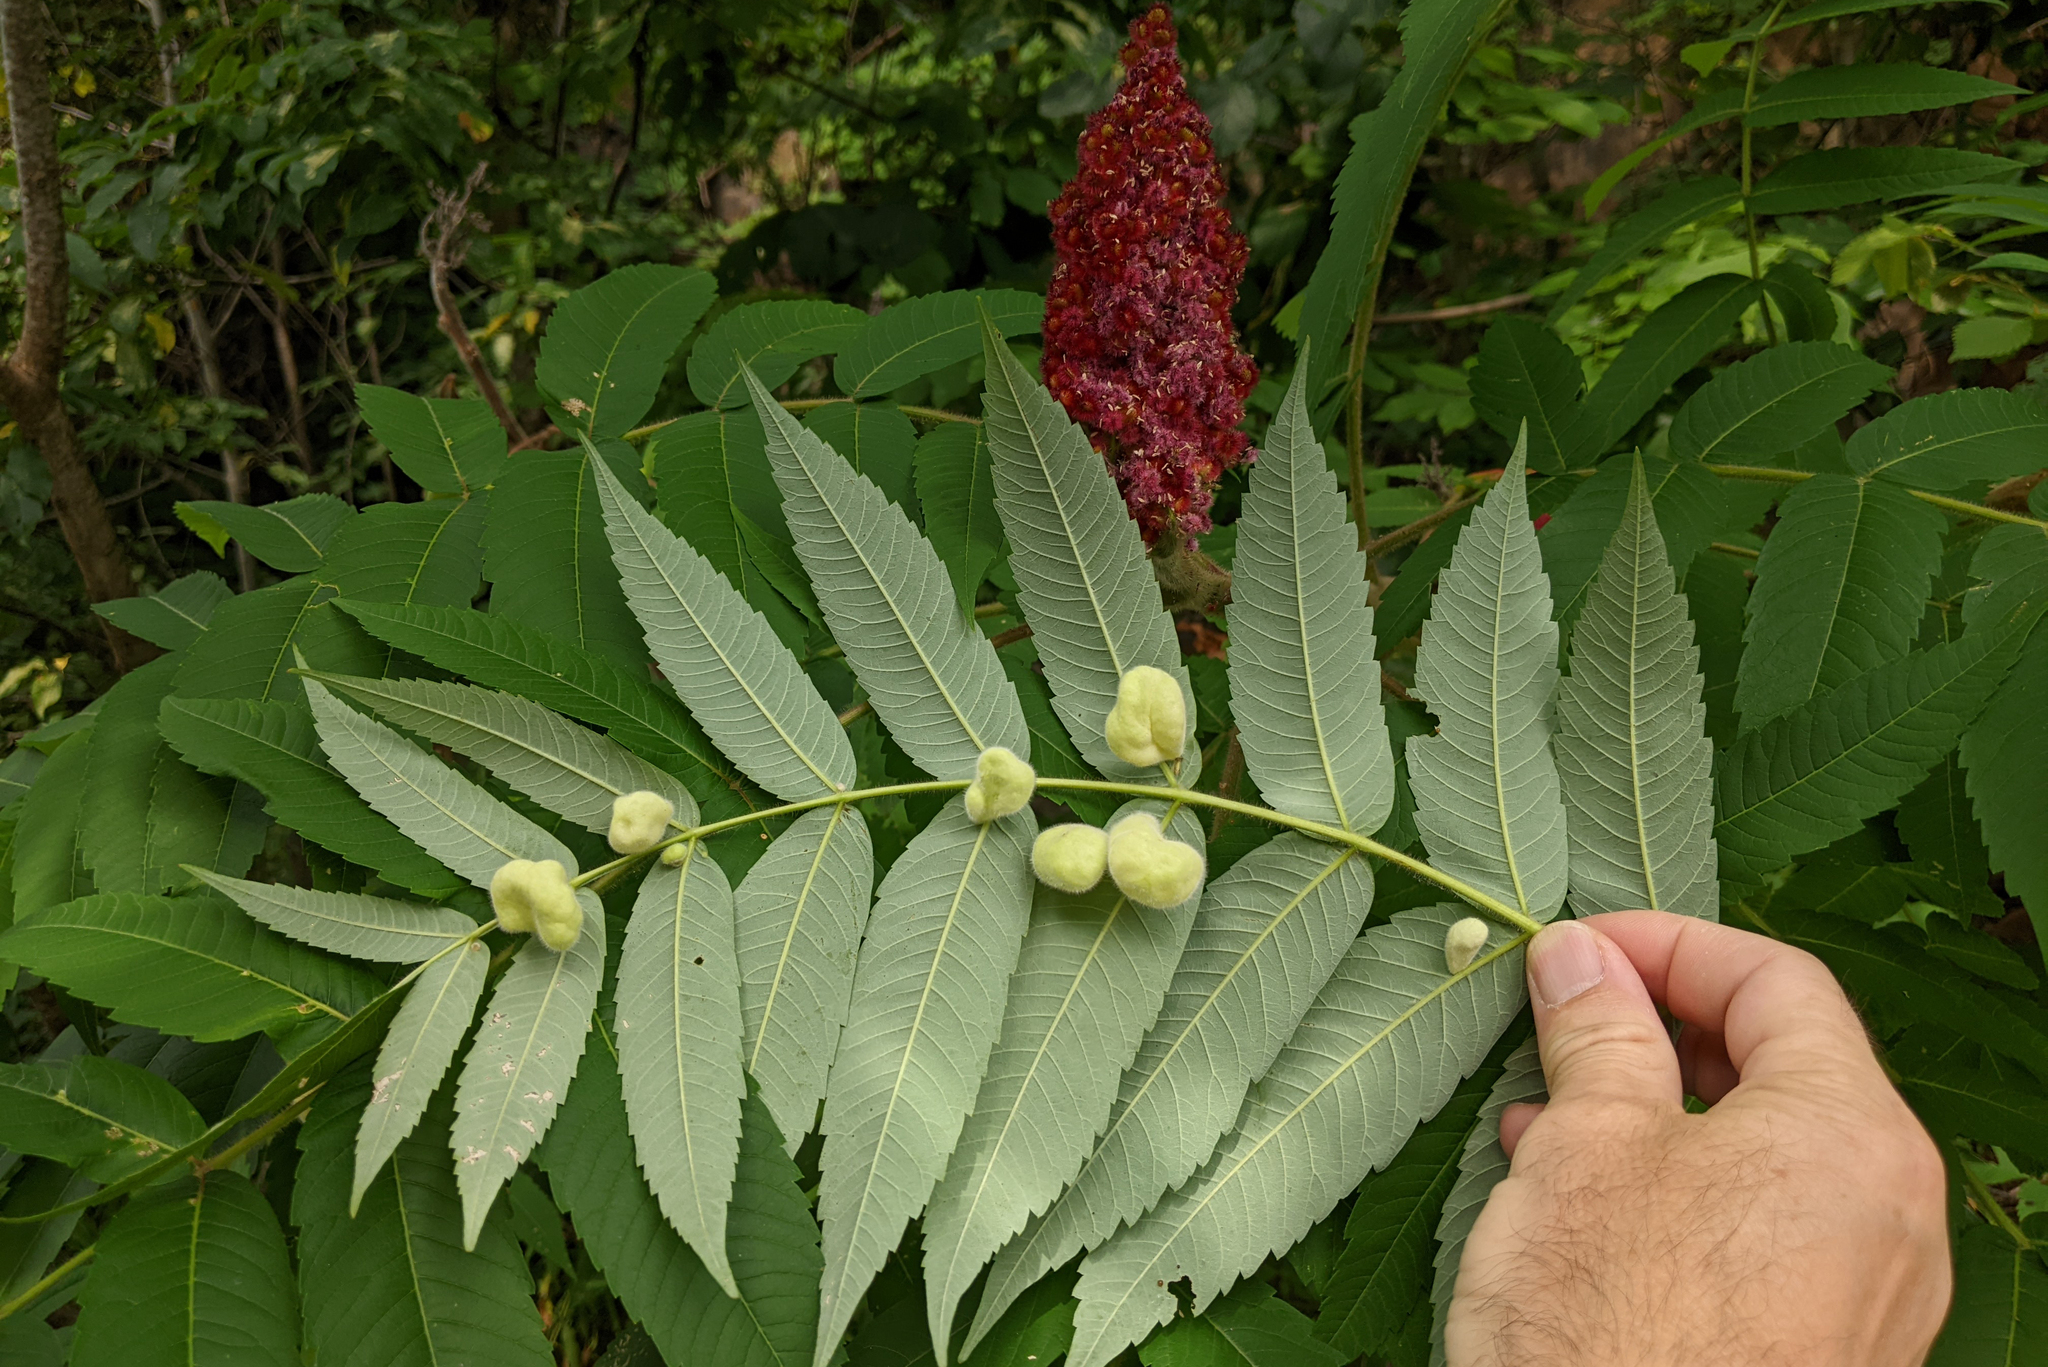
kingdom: Plantae
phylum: Tracheophyta
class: Magnoliopsida
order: Sapindales
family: Anacardiaceae
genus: Rhus
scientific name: Rhus typhina
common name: Staghorn sumac
